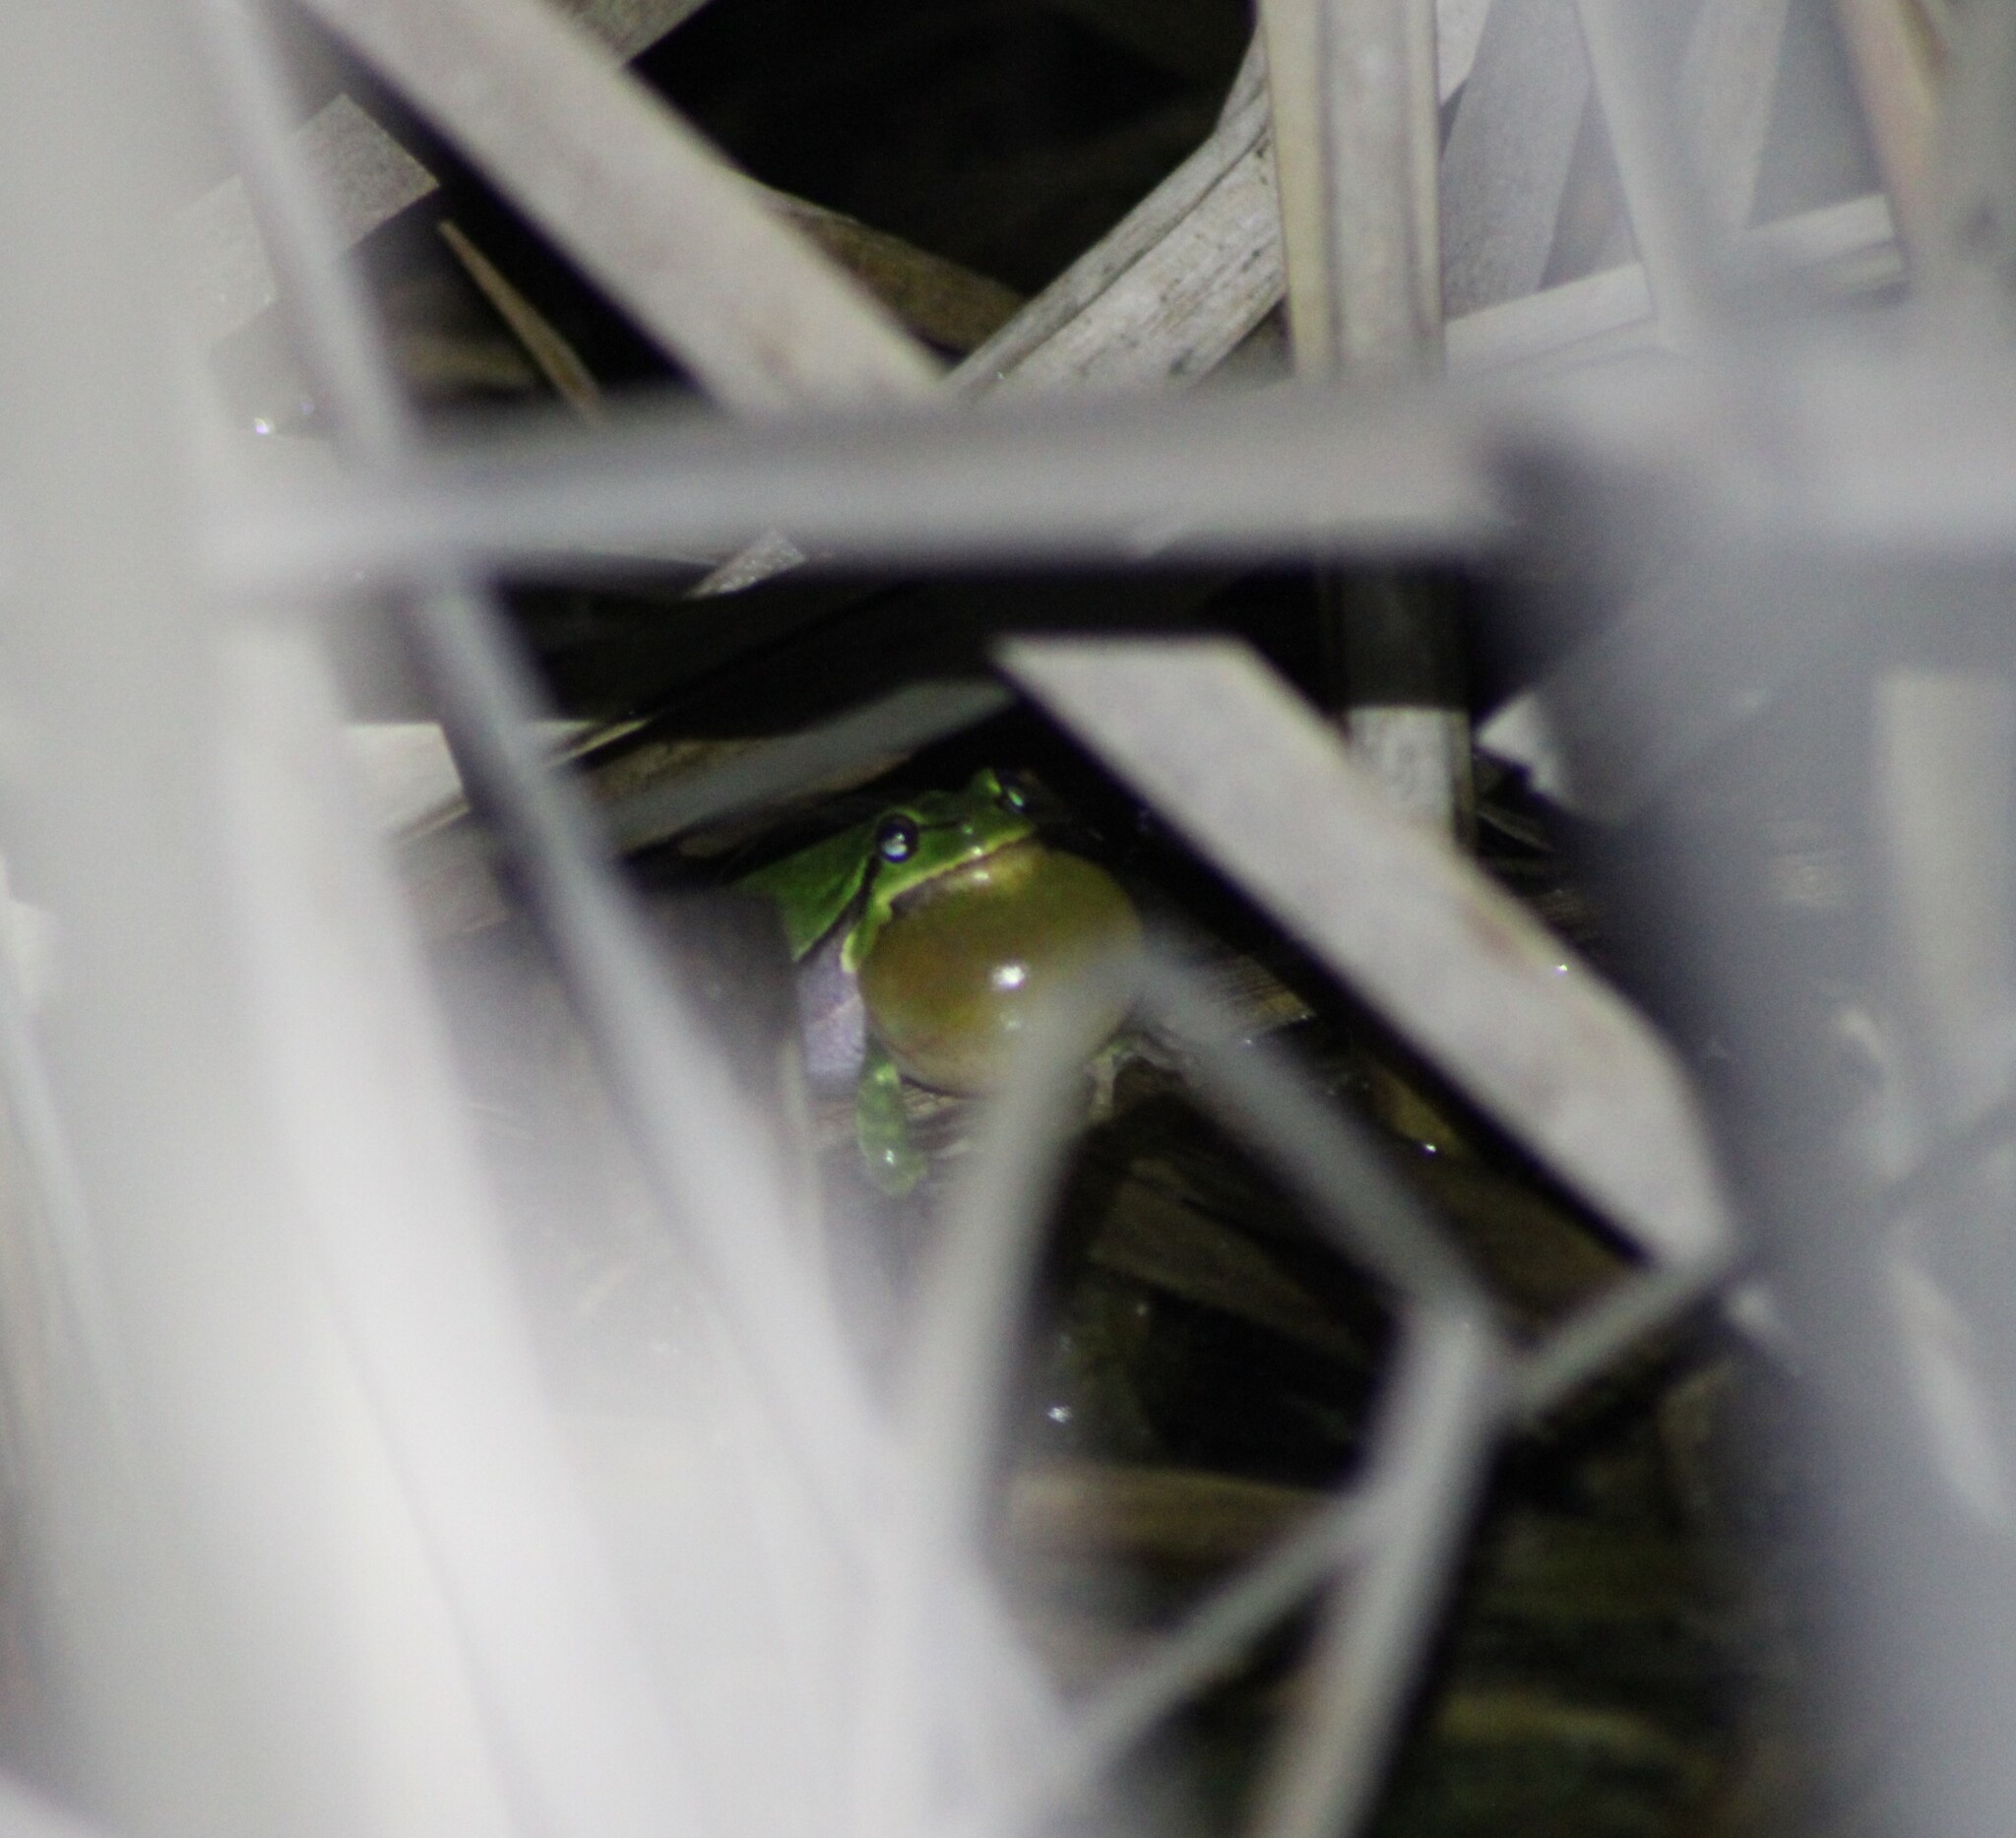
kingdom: Animalia
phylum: Chordata
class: Amphibia
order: Anura
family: Hylidae
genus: Hyla
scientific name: Hyla arborea
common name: Common tree frog
